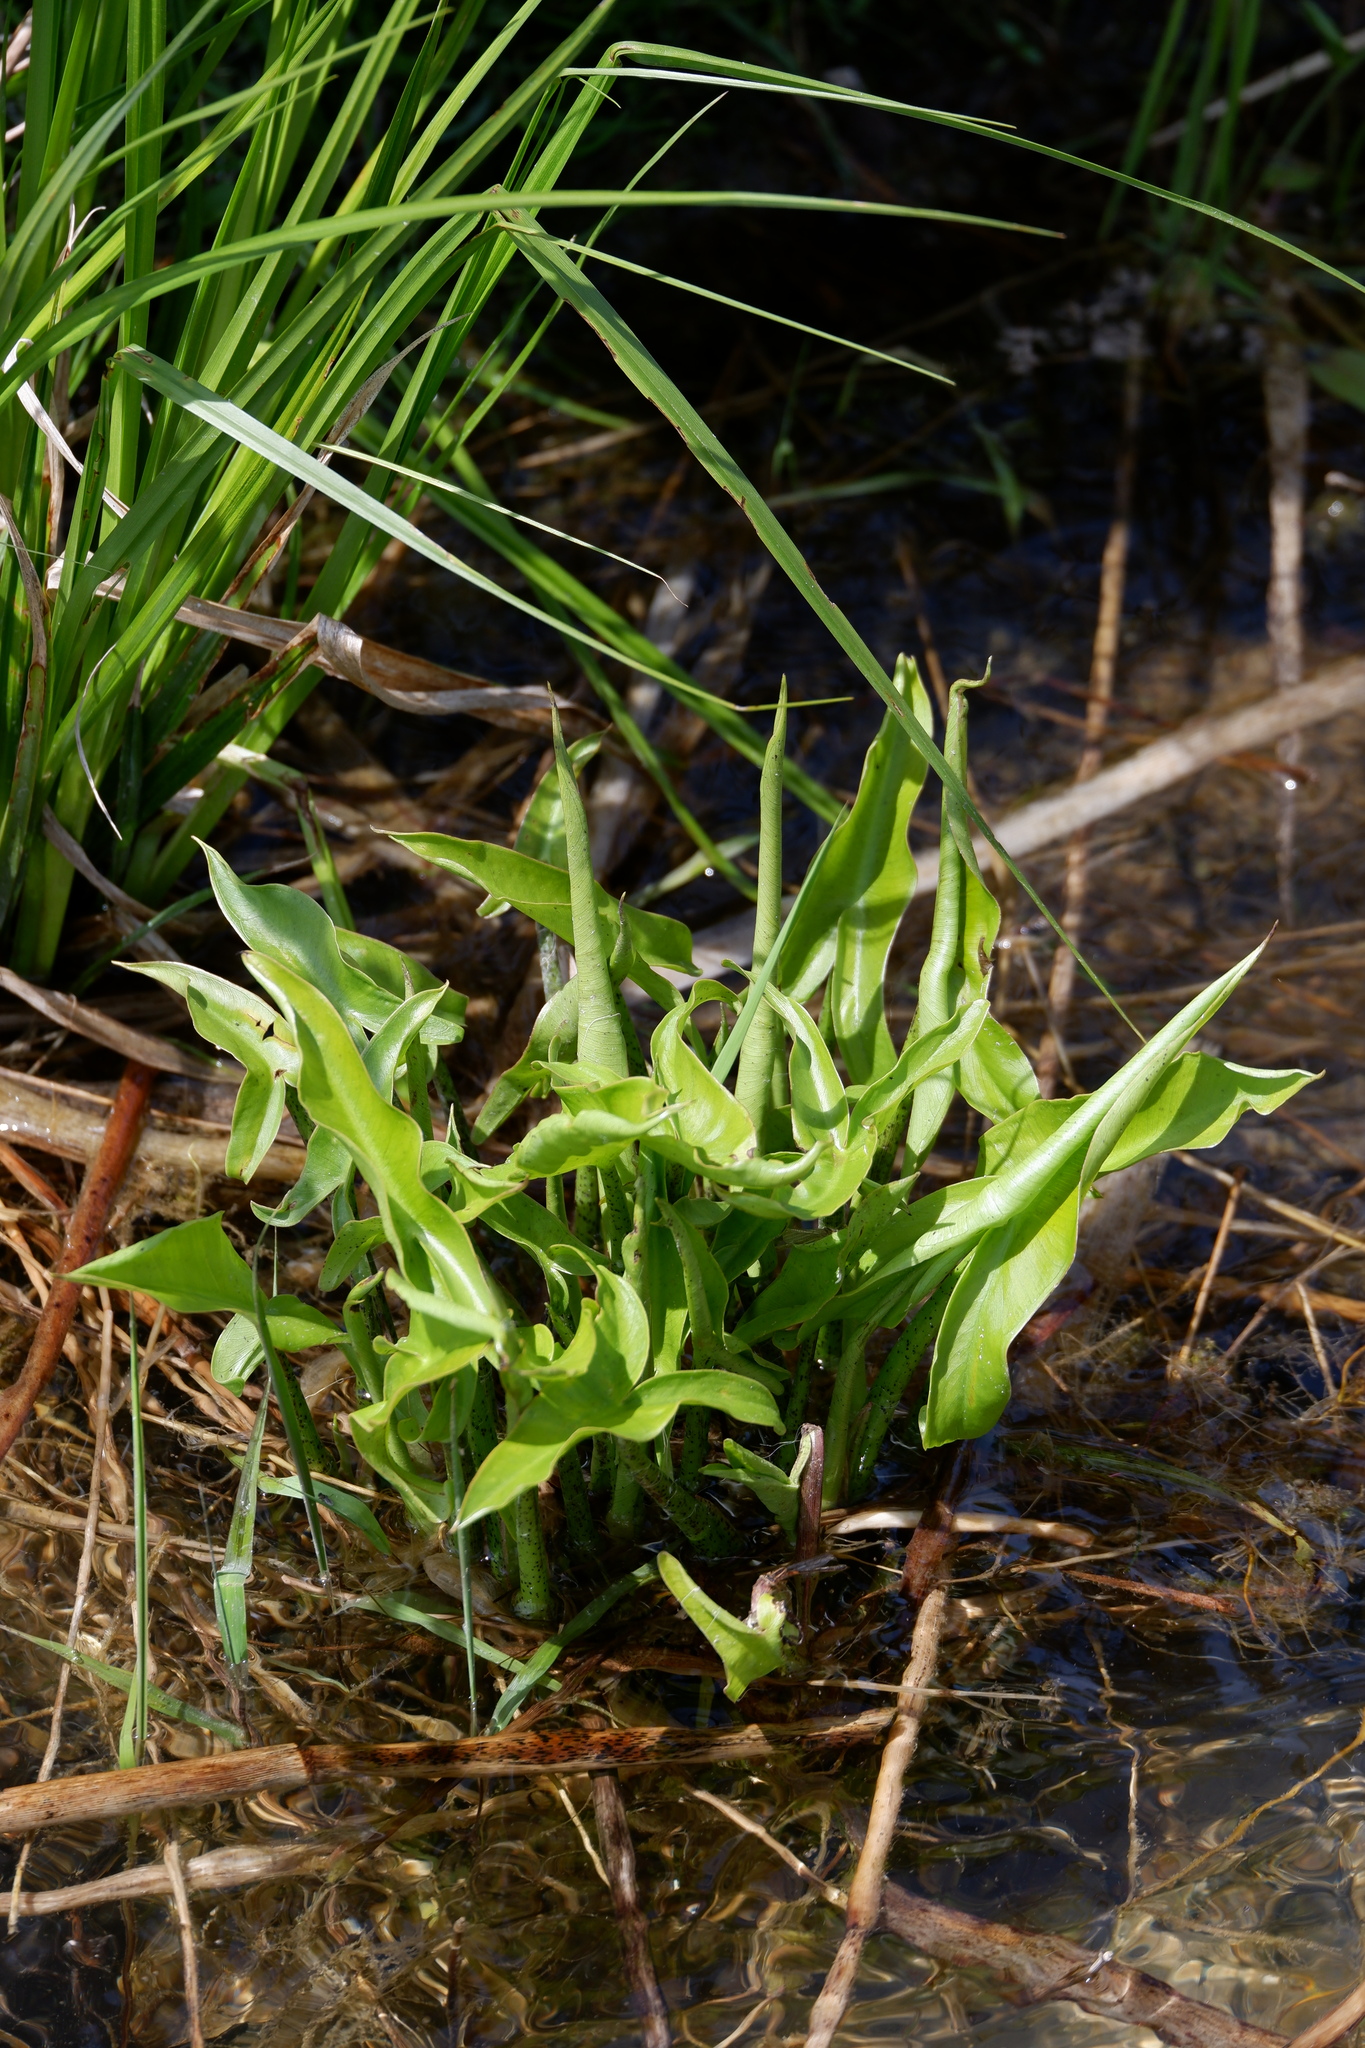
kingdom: Plantae
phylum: Tracheophyta
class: Liliopsida
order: Alismatales
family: Araceae
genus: Peltandra
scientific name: Peltandra virginica
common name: Arrow arum
